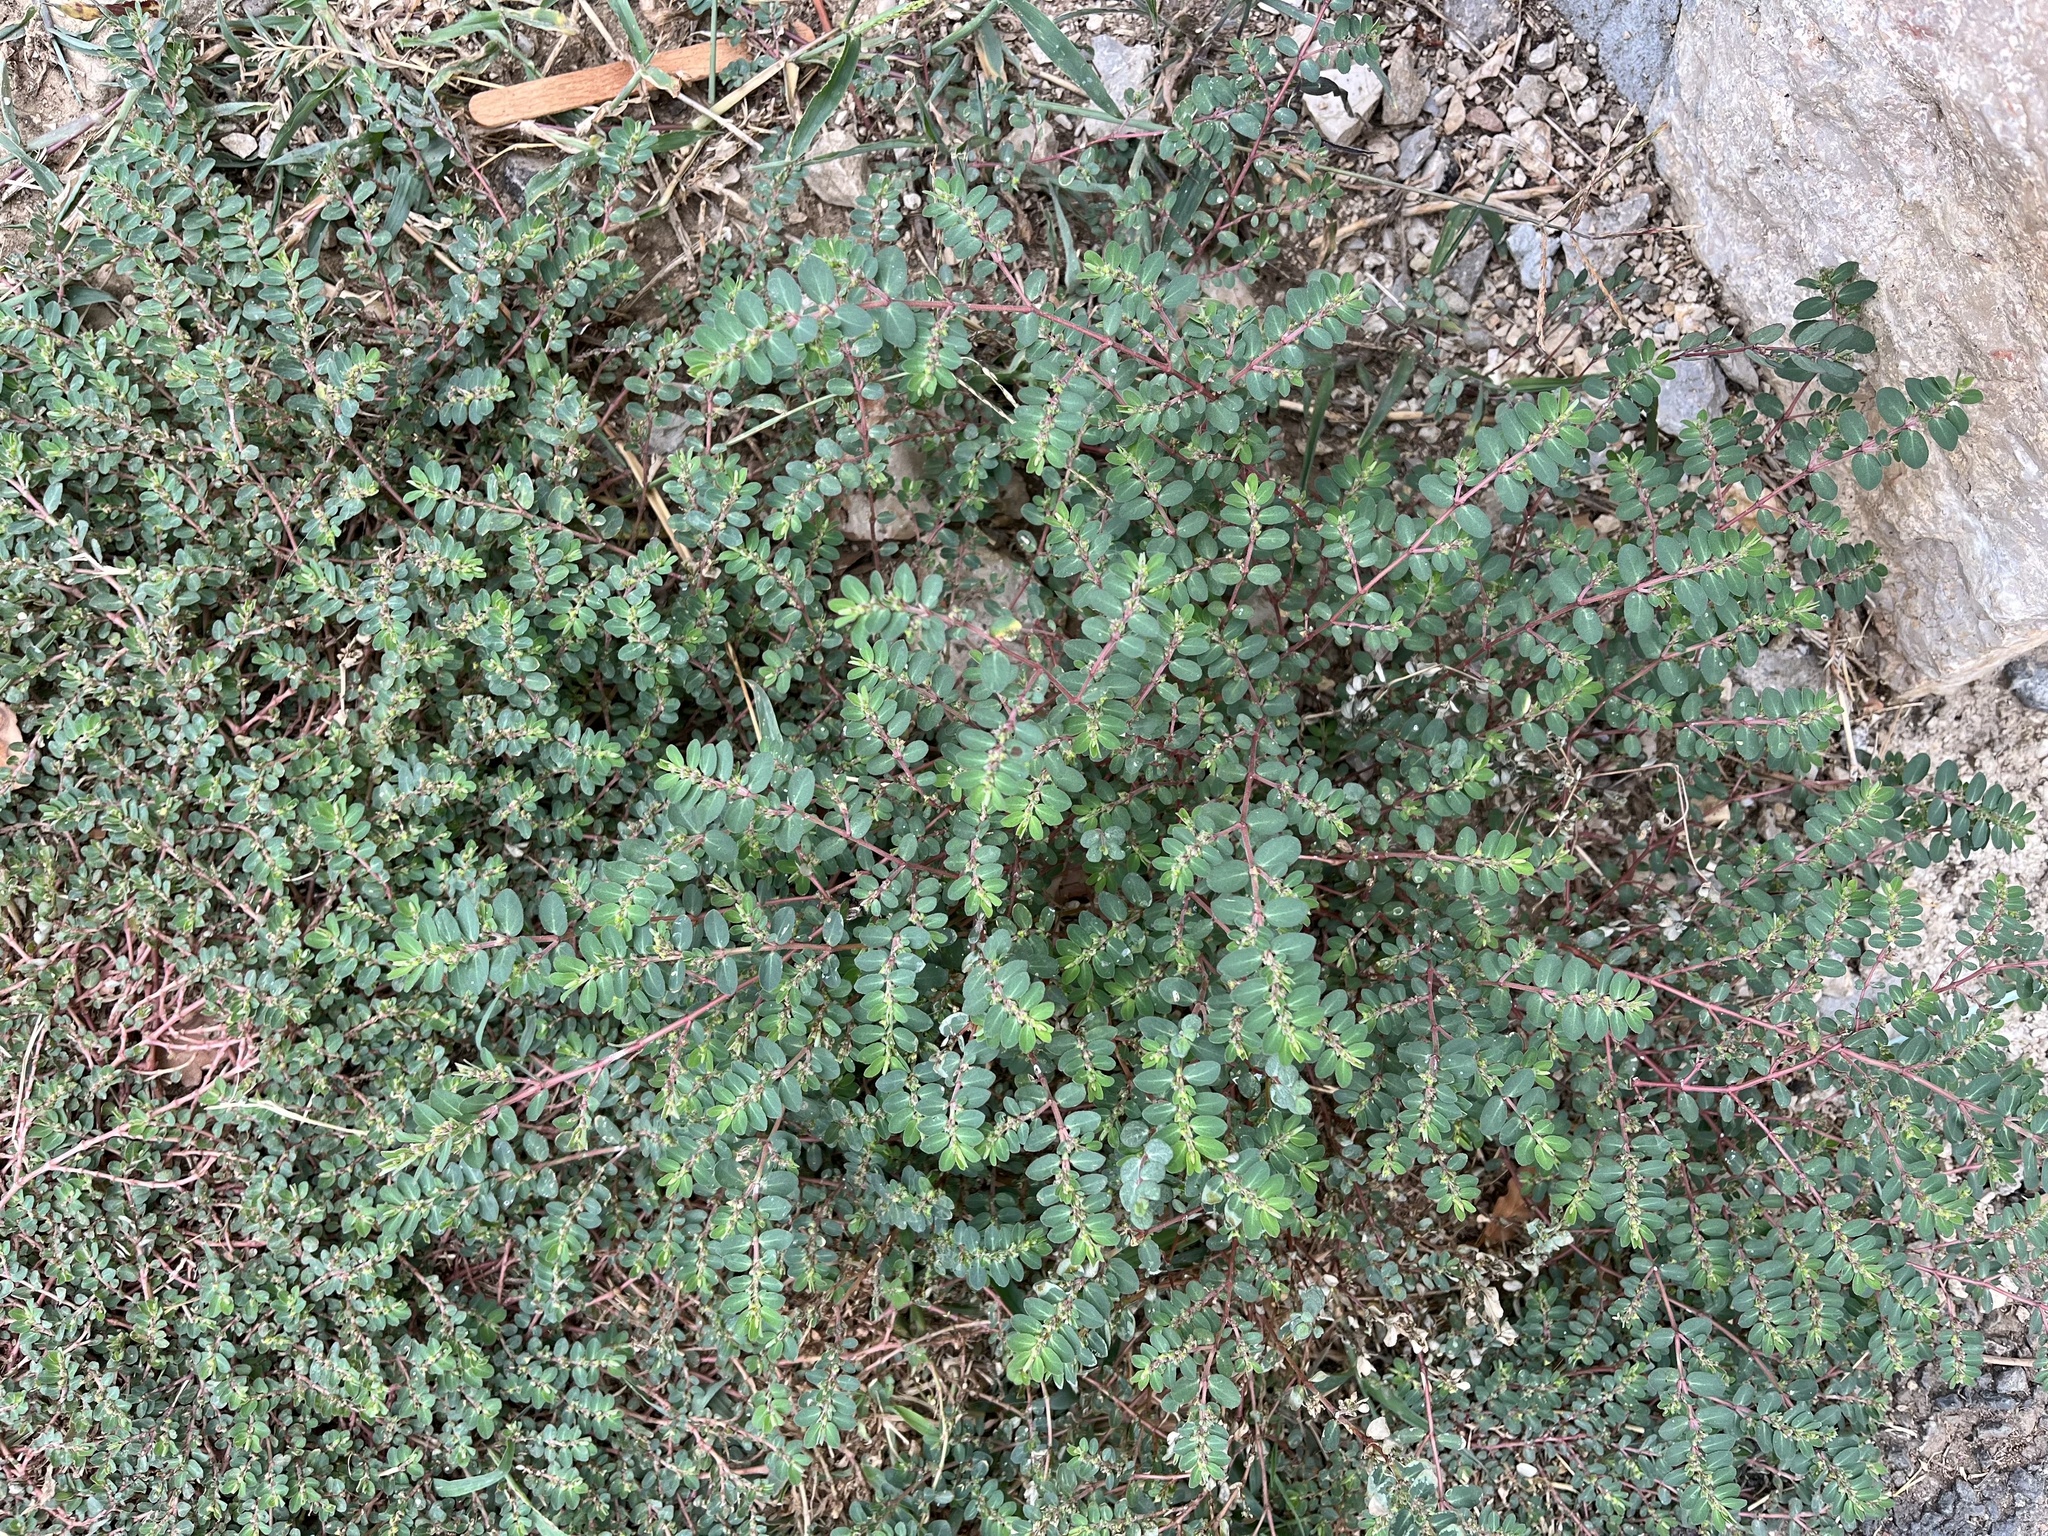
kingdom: Plantae
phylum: Tracheophyta
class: Magnoliopsida
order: Malpighiales
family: Euphorbiaceae
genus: Euphorbia
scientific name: Euphorbia prostrata
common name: Prostrate sandmat
